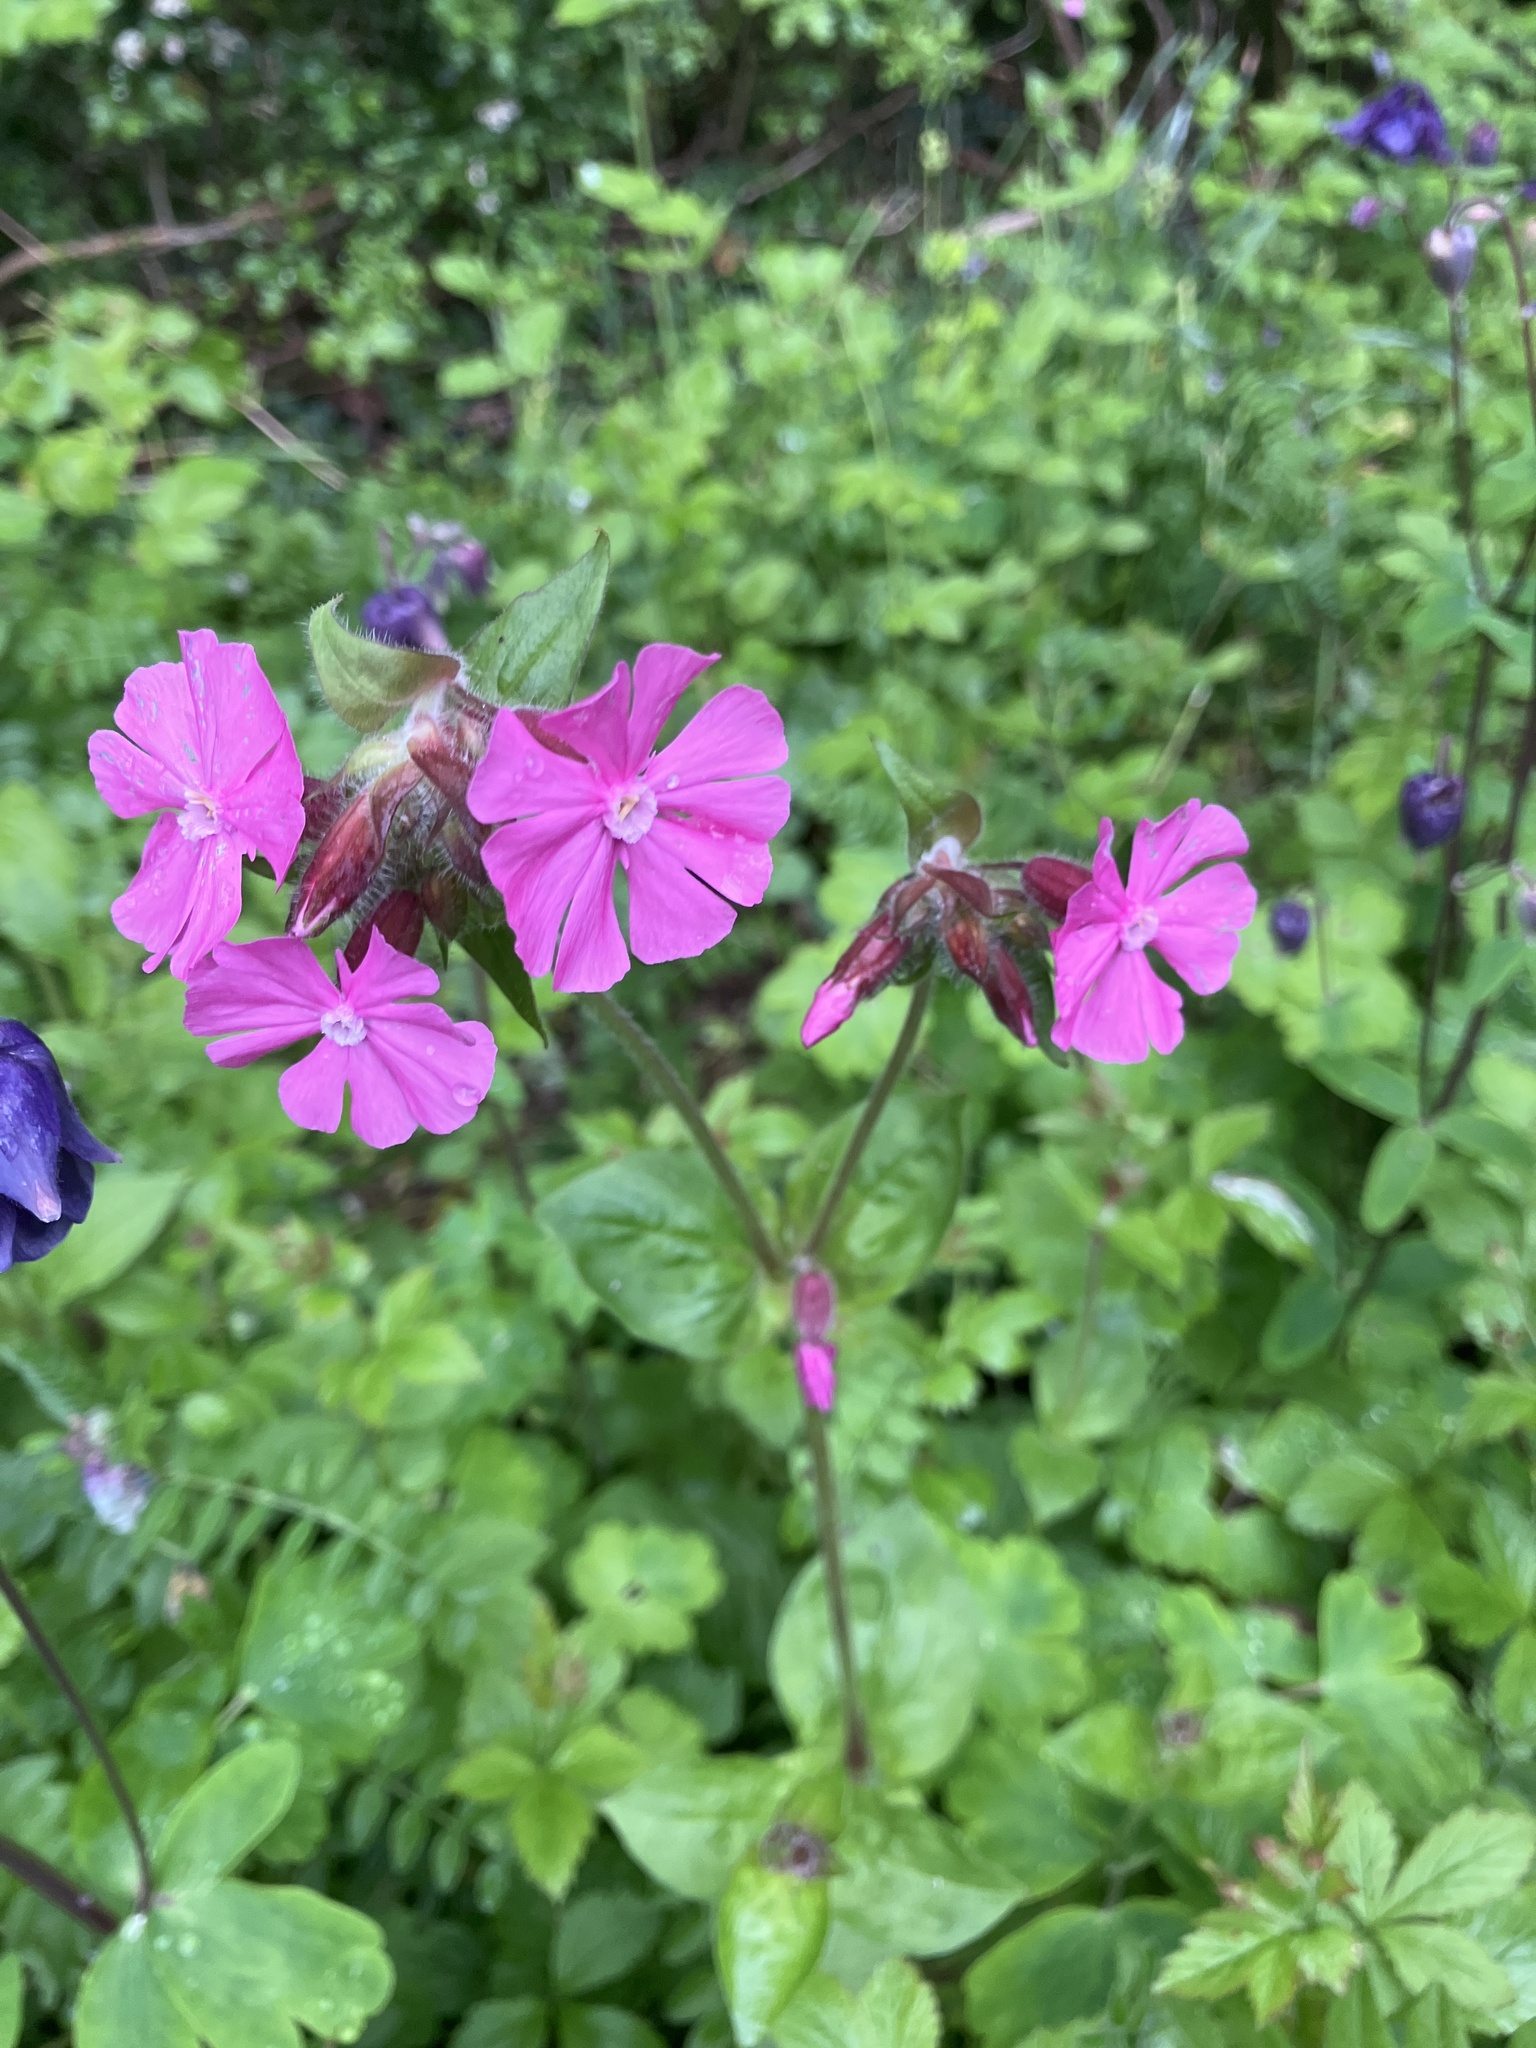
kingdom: Plantae
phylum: Tracheophyta
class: Magnoliopsida
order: Caryophyllales
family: Caryophyllaceae
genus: Silene
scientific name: Silene dioica
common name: Red campion
